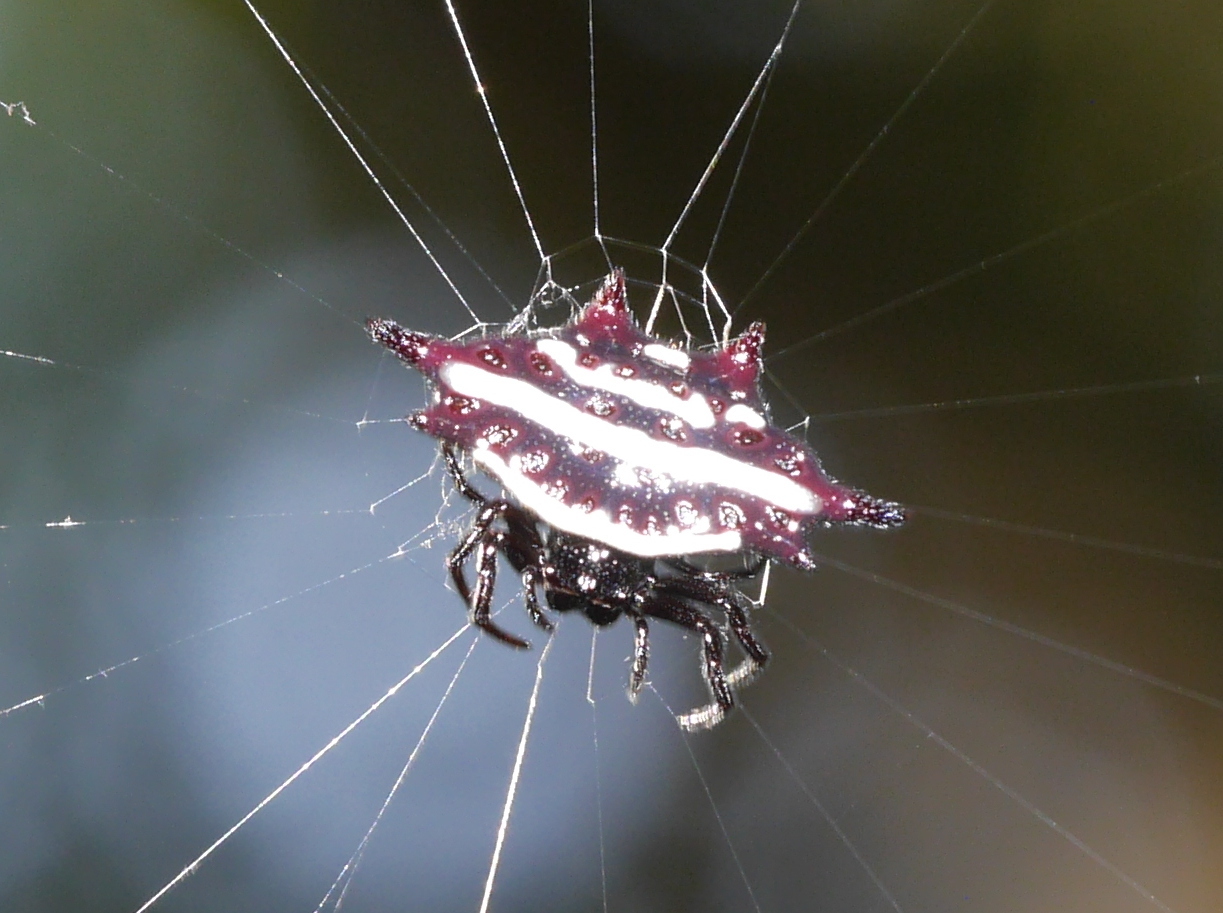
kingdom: Animalia
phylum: Arthropoda
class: Arachnida
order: Araneae
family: Araneidae
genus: Gasteracantha
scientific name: Gasteracantha doriae
